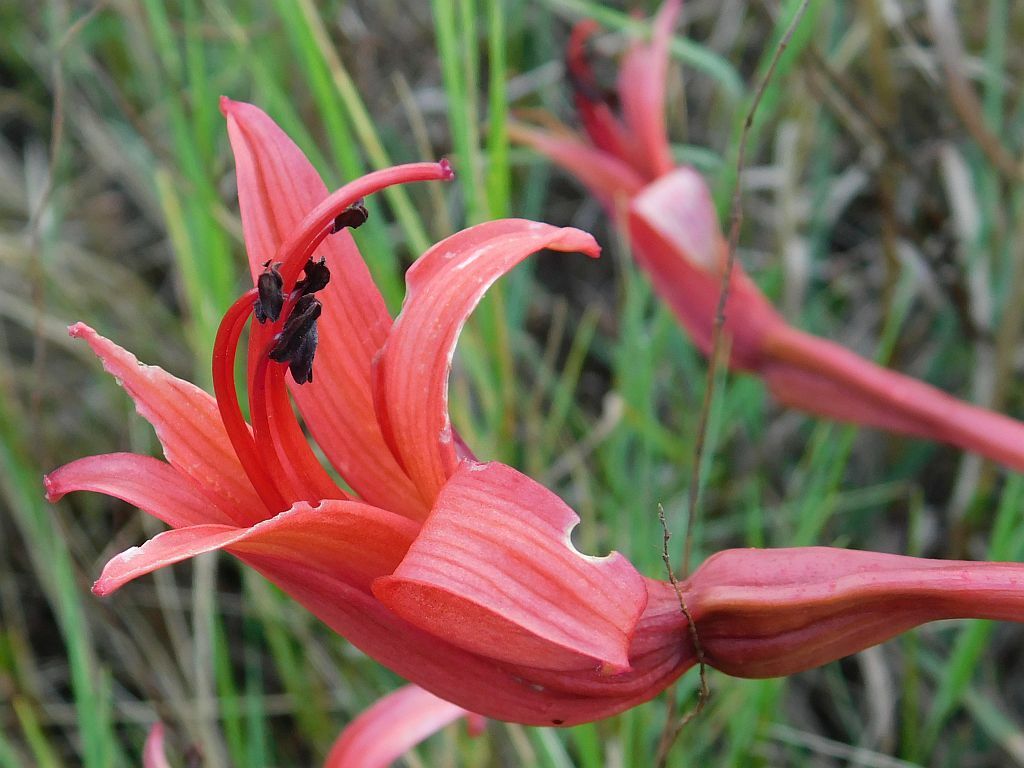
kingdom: Plantae
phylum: Tracheophyta
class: Liliopsida
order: Asparagales
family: Amaryllidaceae
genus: Brunsvigia
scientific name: Brunsvigia orientalis
